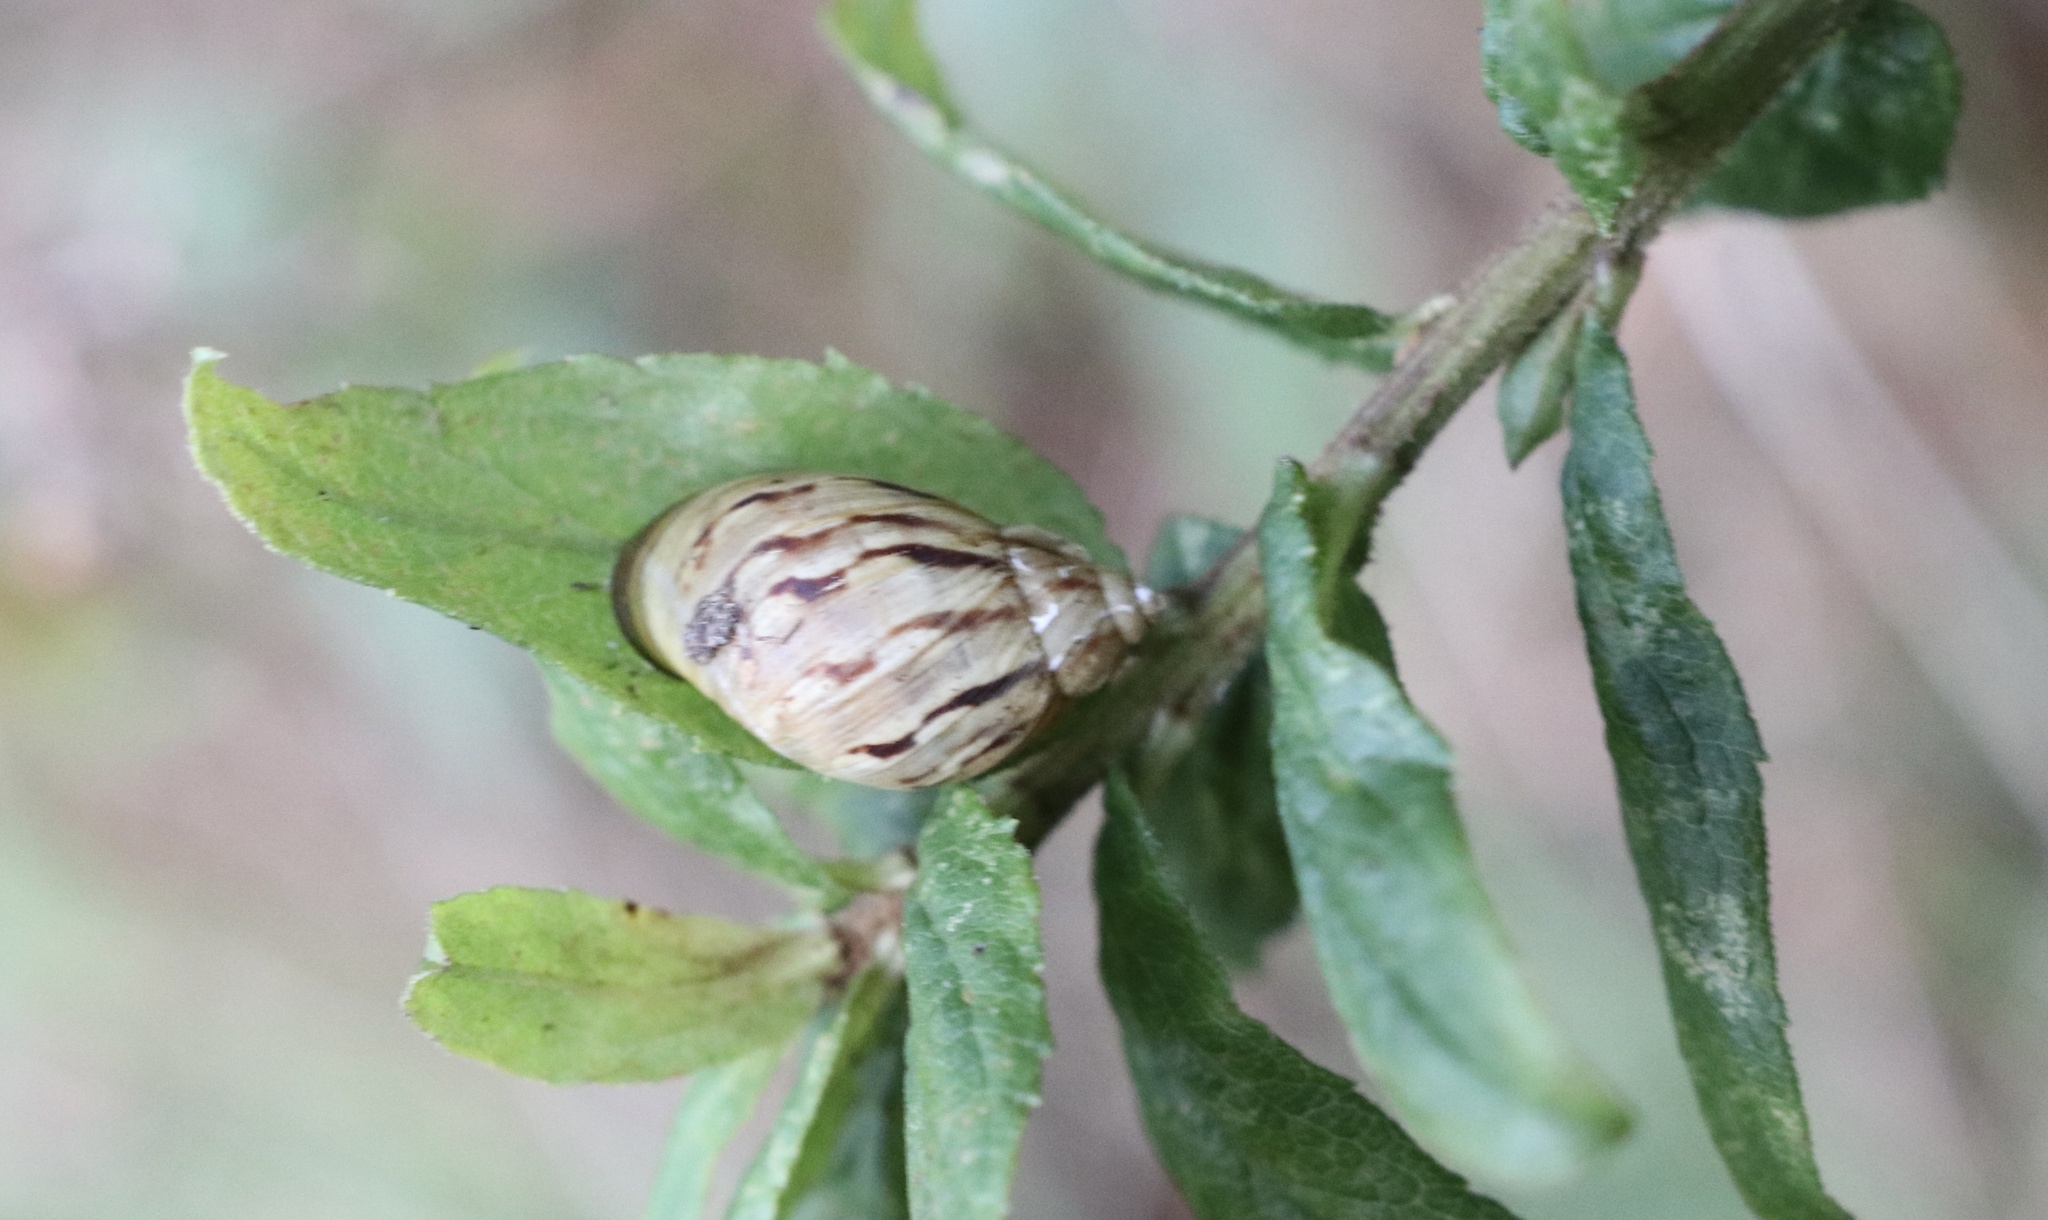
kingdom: Animalia
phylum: Mollusca
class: Gastropoda
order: Stylommatophora
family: Bothriembryontidae
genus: Plectostylus
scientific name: Plectostylus
